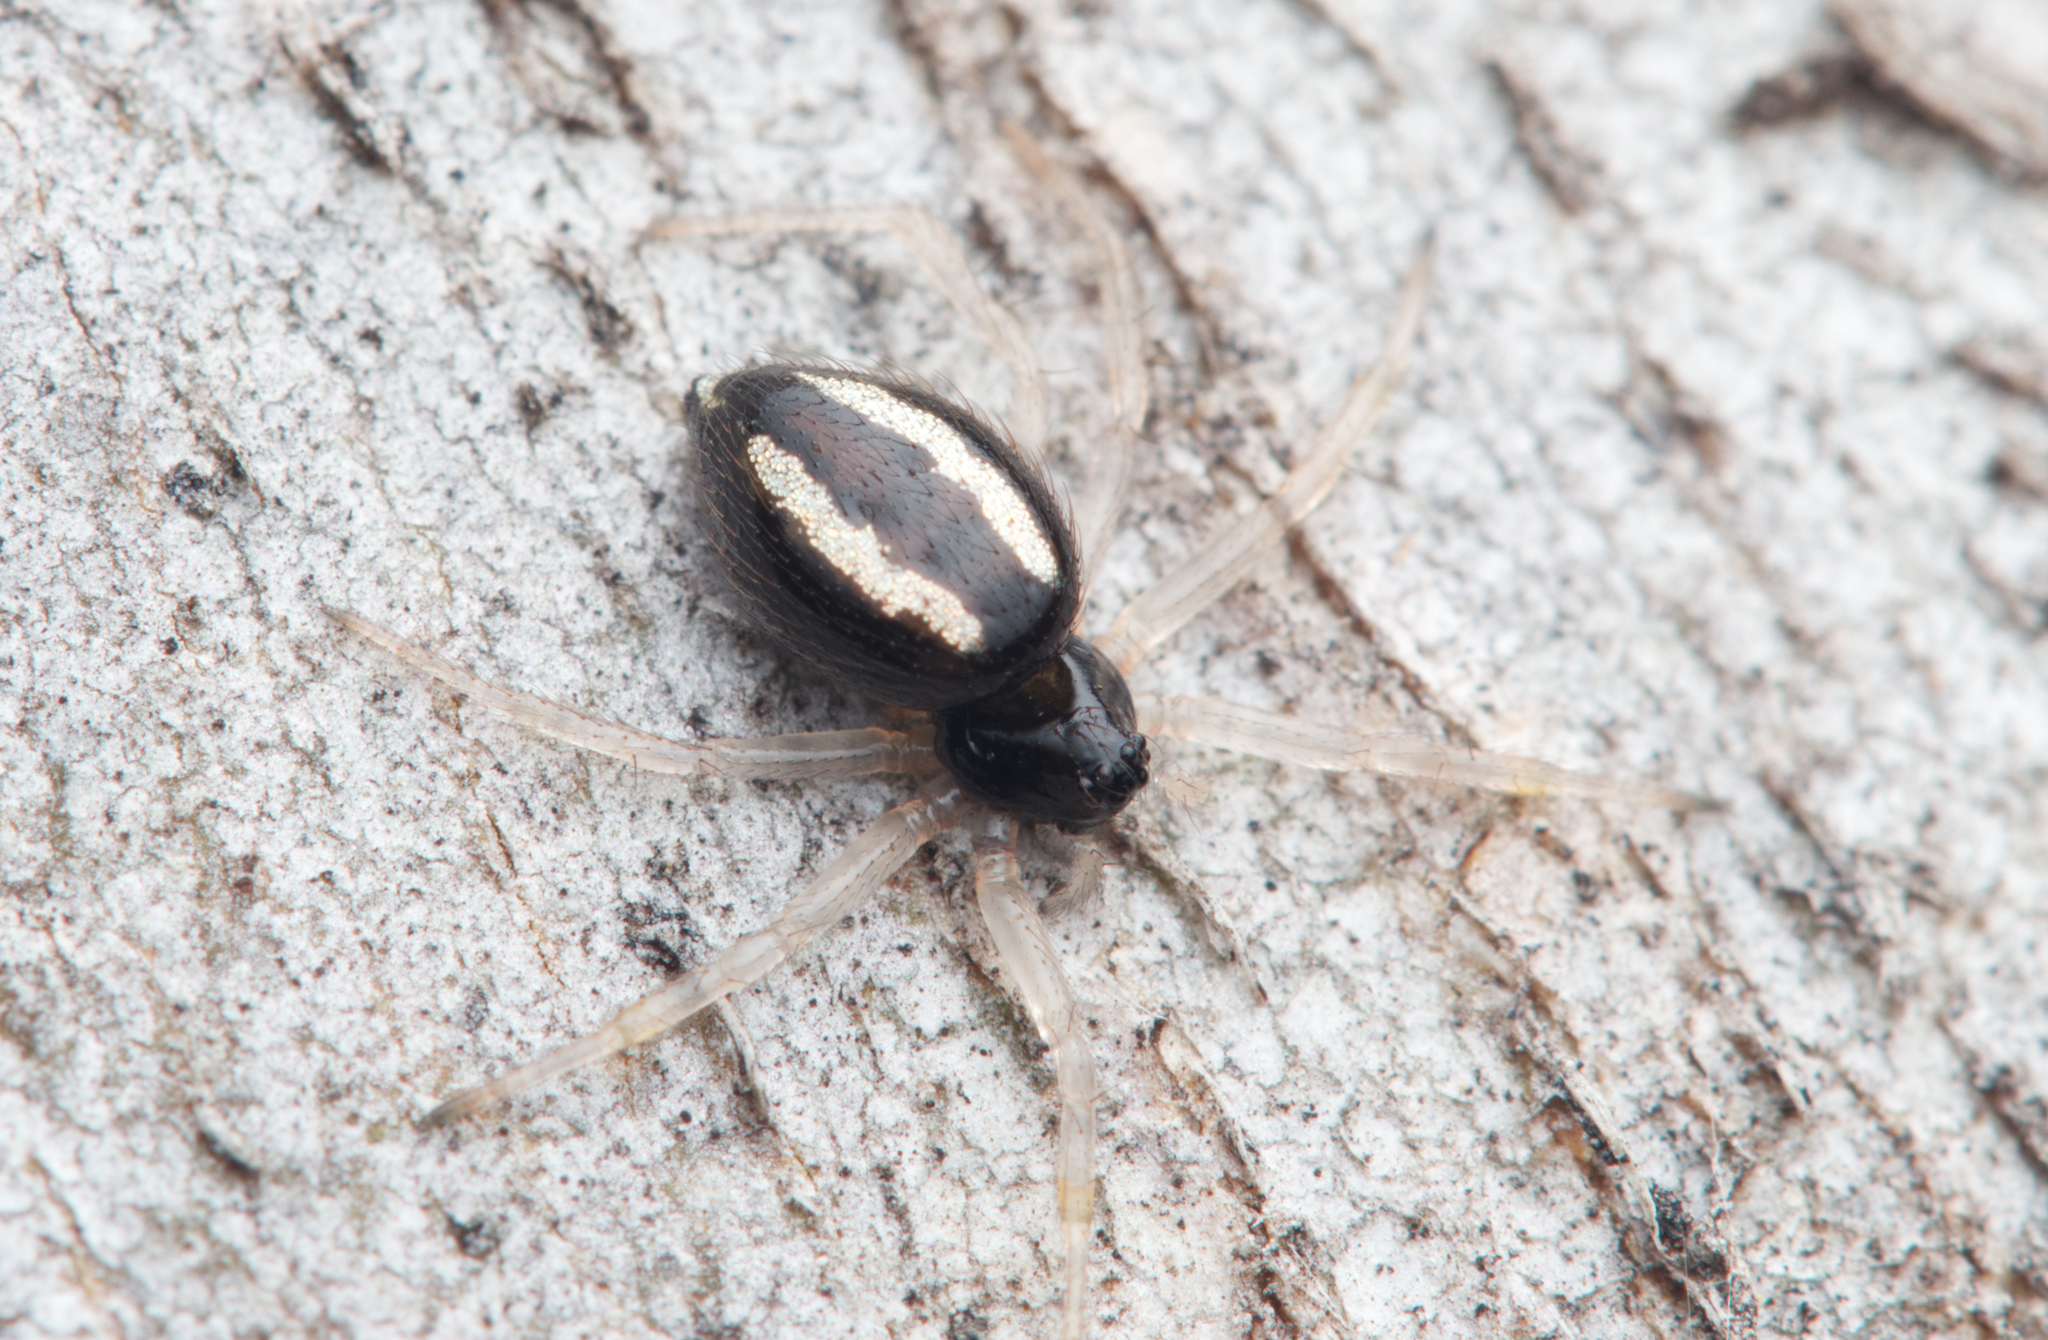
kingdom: Animalia
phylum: Arthropoda
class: Arachnida
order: Araneae
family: Theridiidae
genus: Euryopis
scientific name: Euryopis umbilicata
